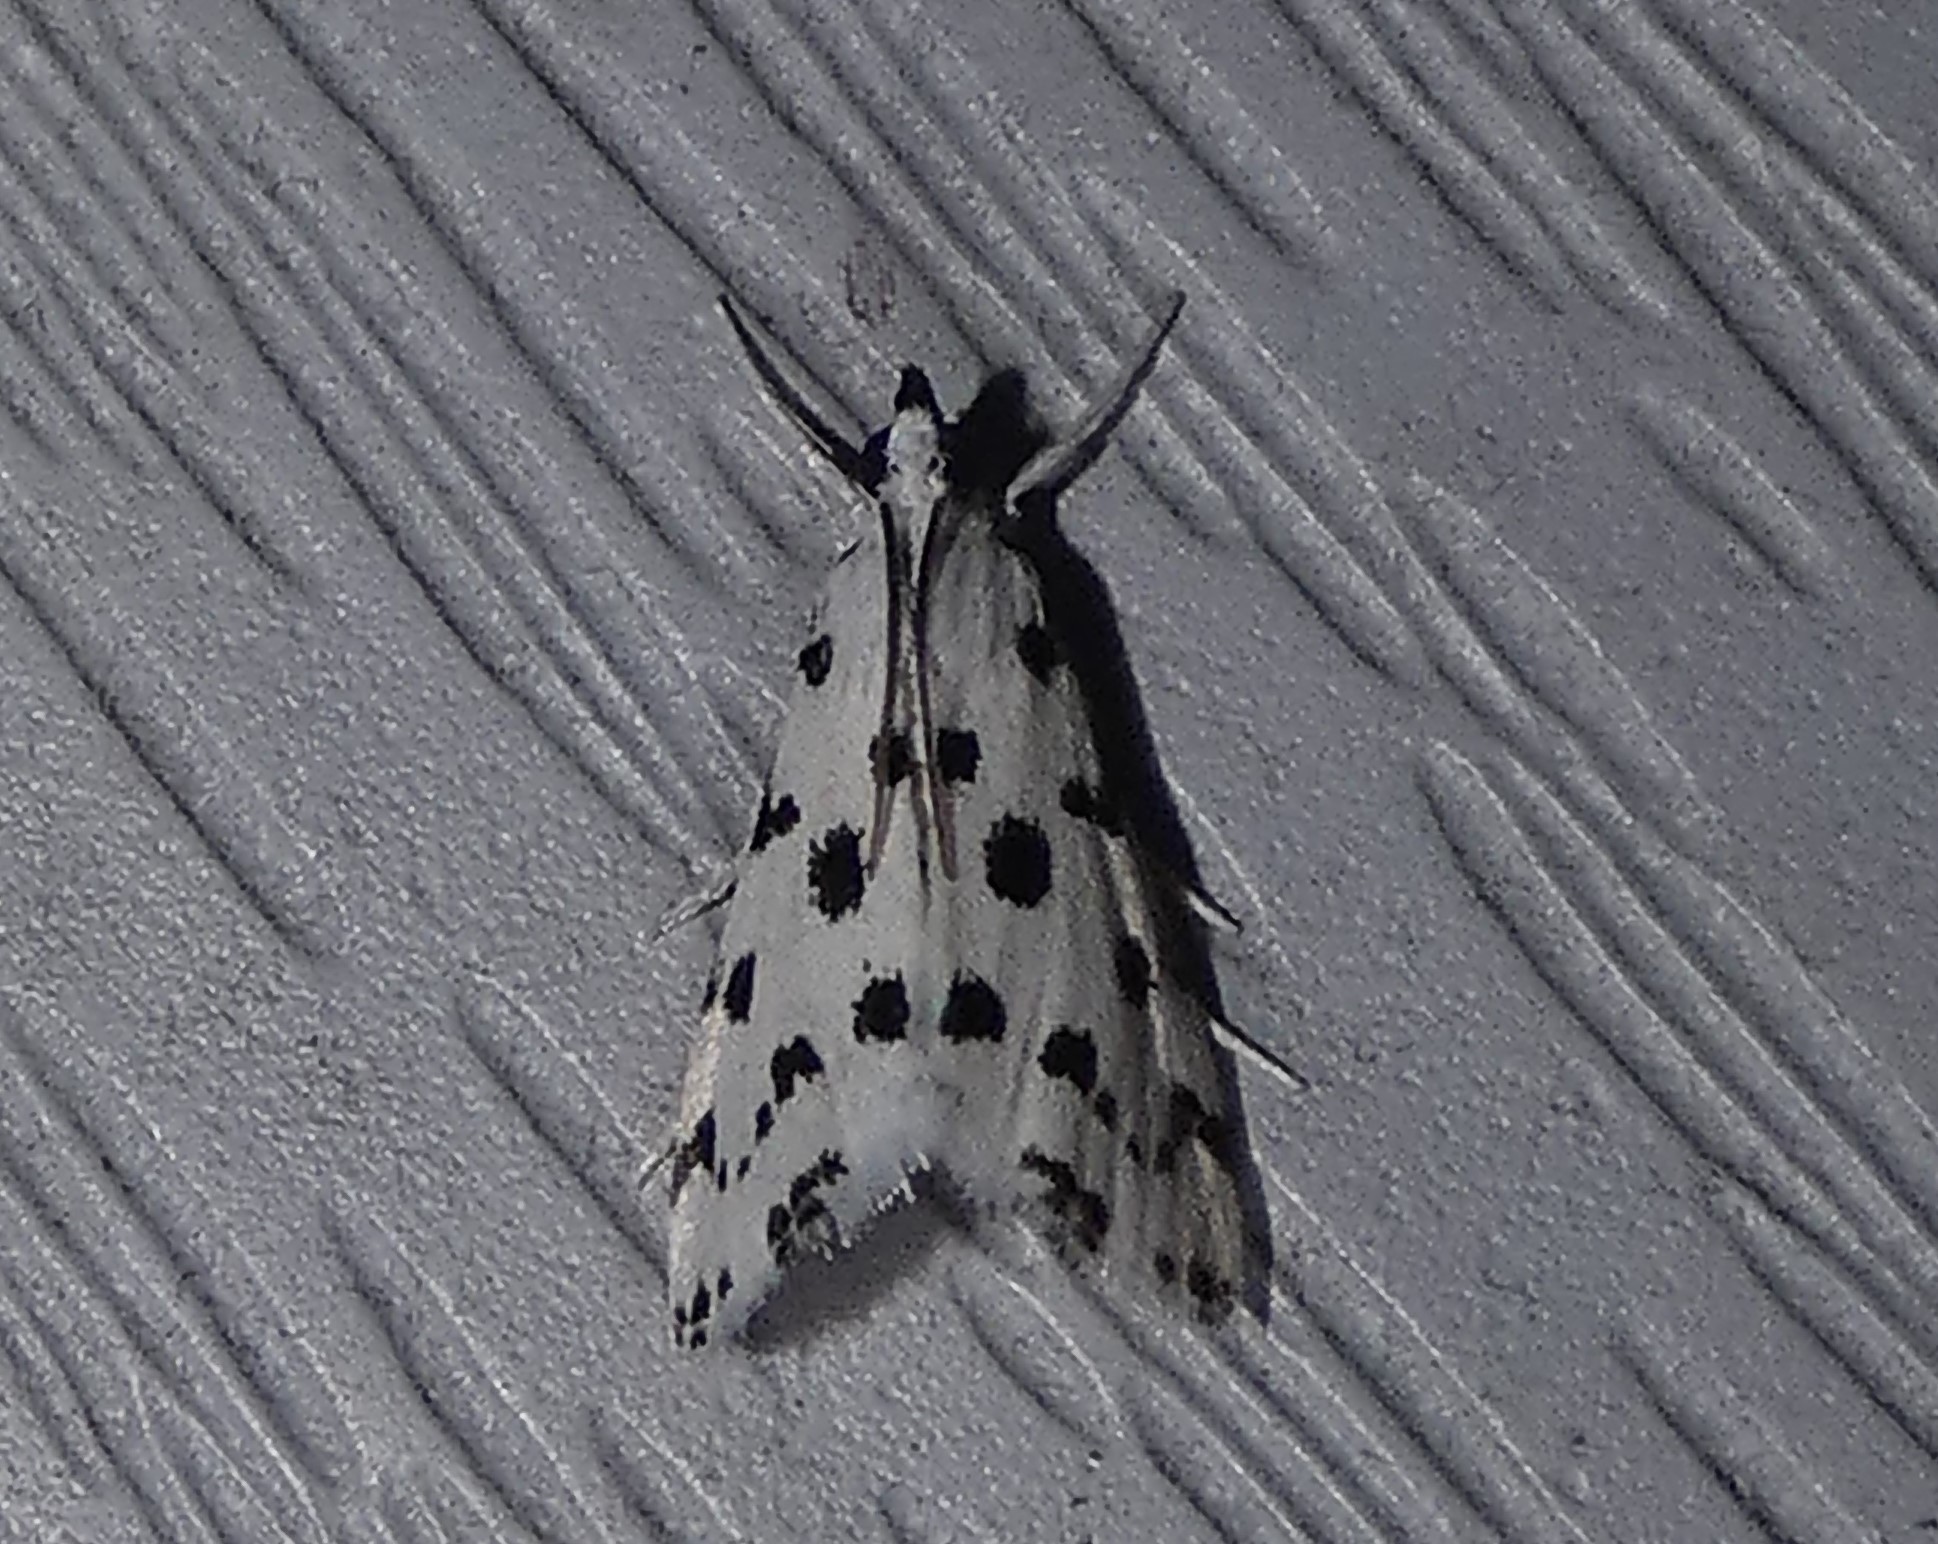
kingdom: Animalia
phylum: Arthropoda
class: Insecta
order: Lepidoptera
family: Crambidae
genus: Eustixia
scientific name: Eustixia pupula
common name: American cabbage pearl
